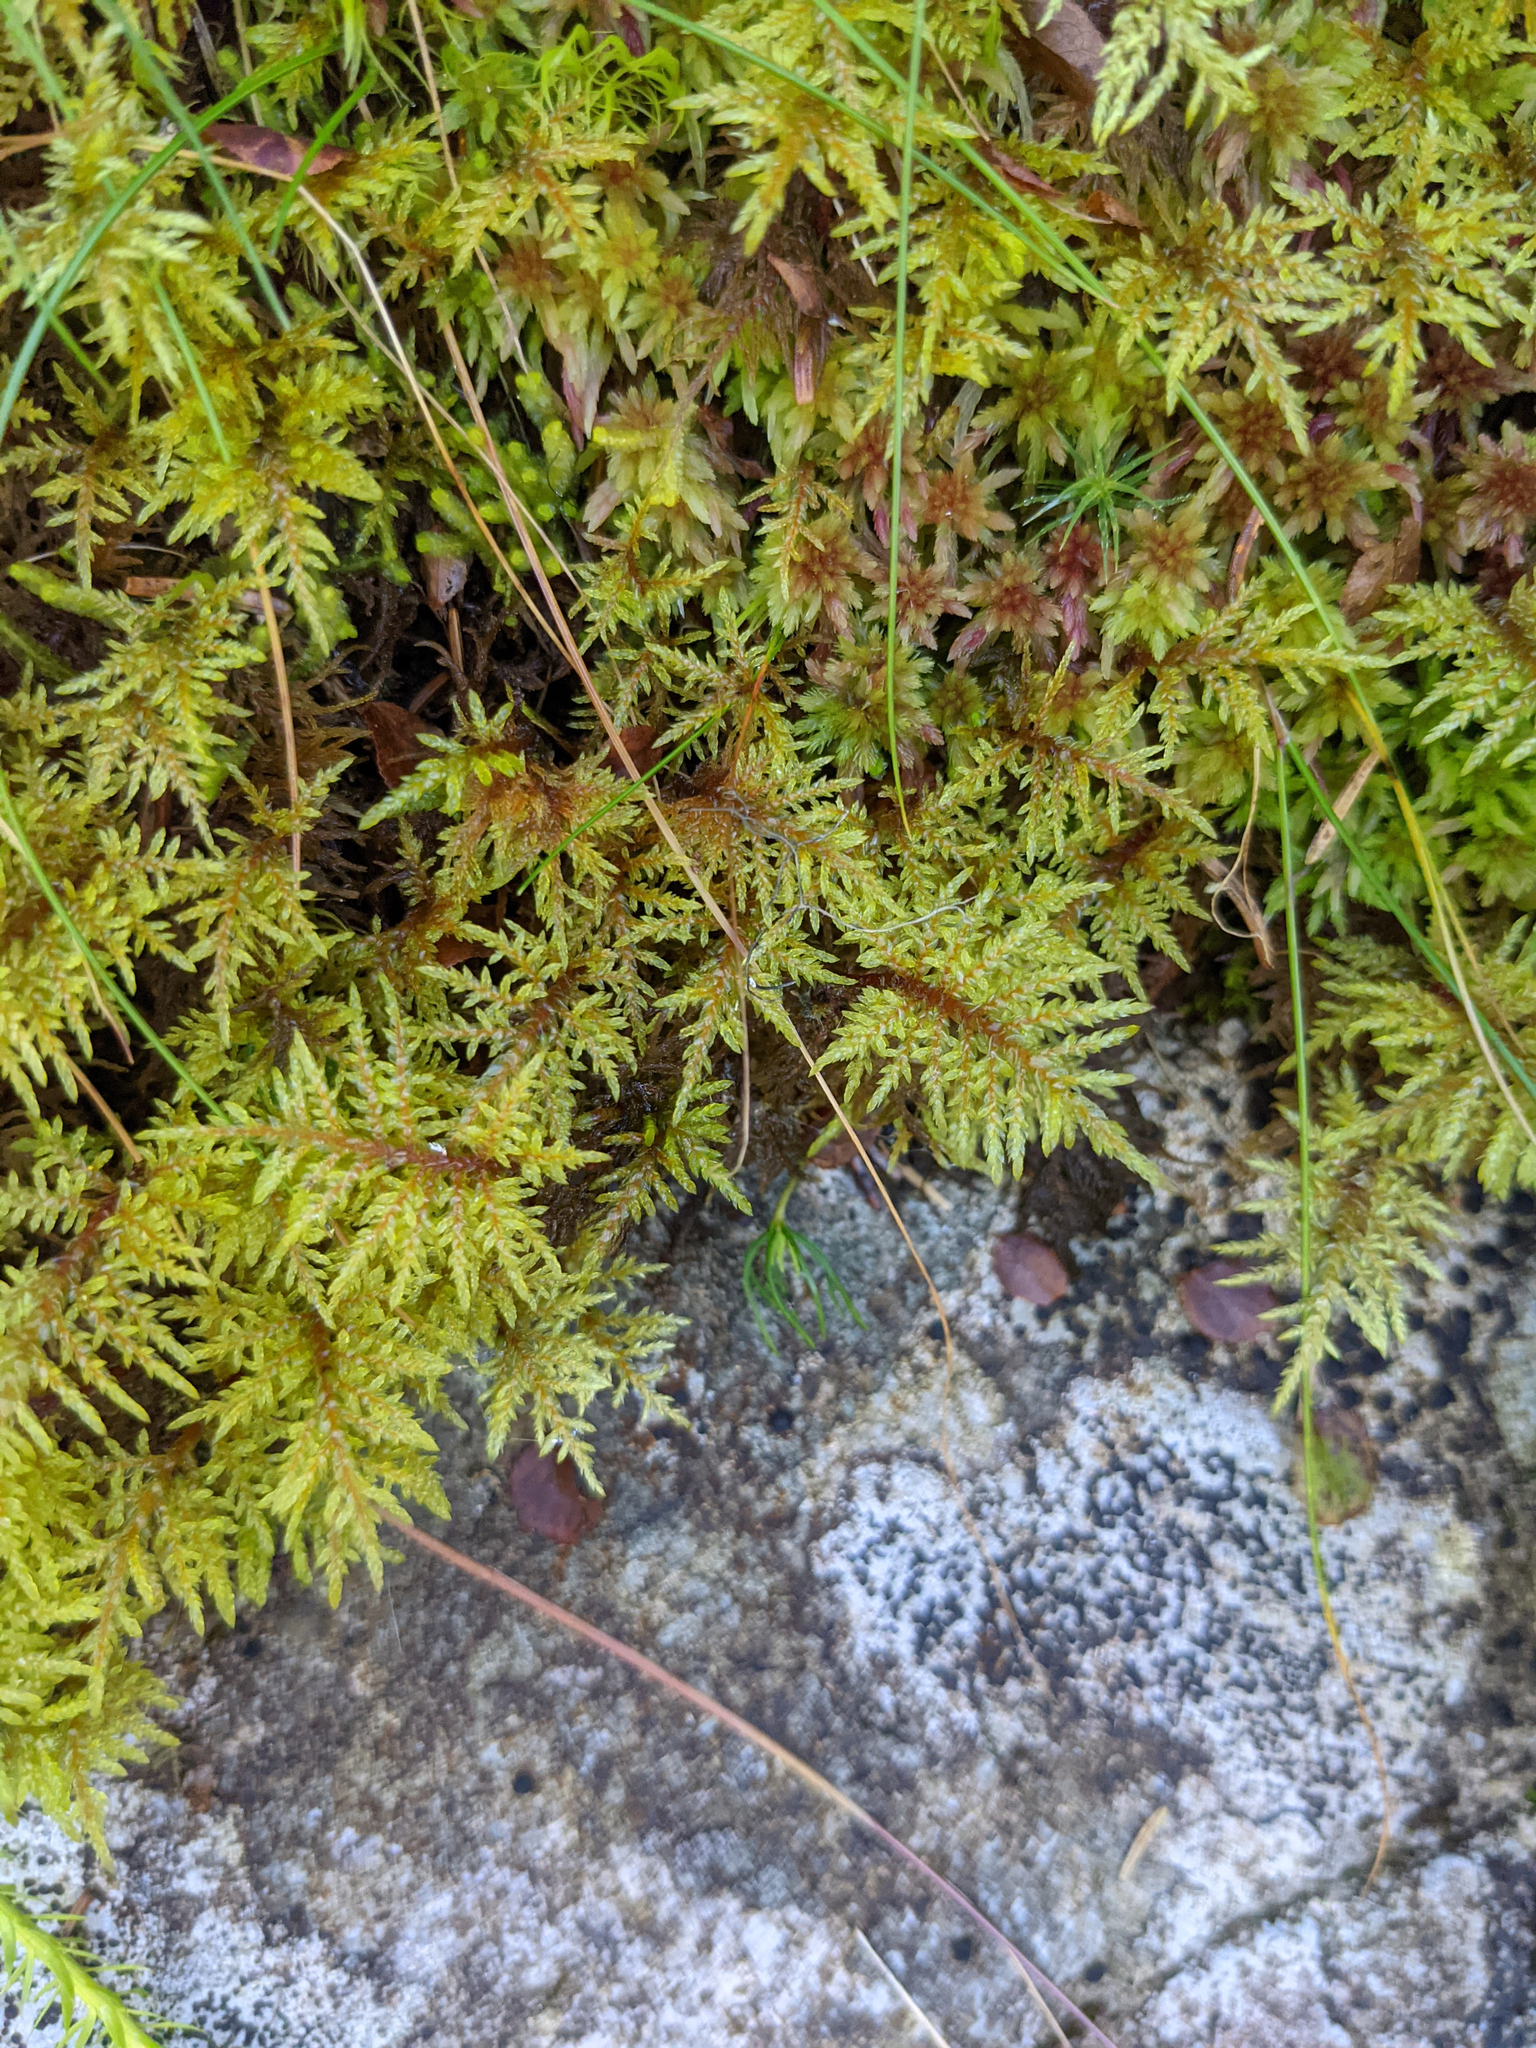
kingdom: Plantae
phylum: Bryophyta
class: Bryopsida
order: Hypnales
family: Hylocomiaceae
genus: Hylocomium
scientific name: Hylocomium splendens
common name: Stairstep moss
